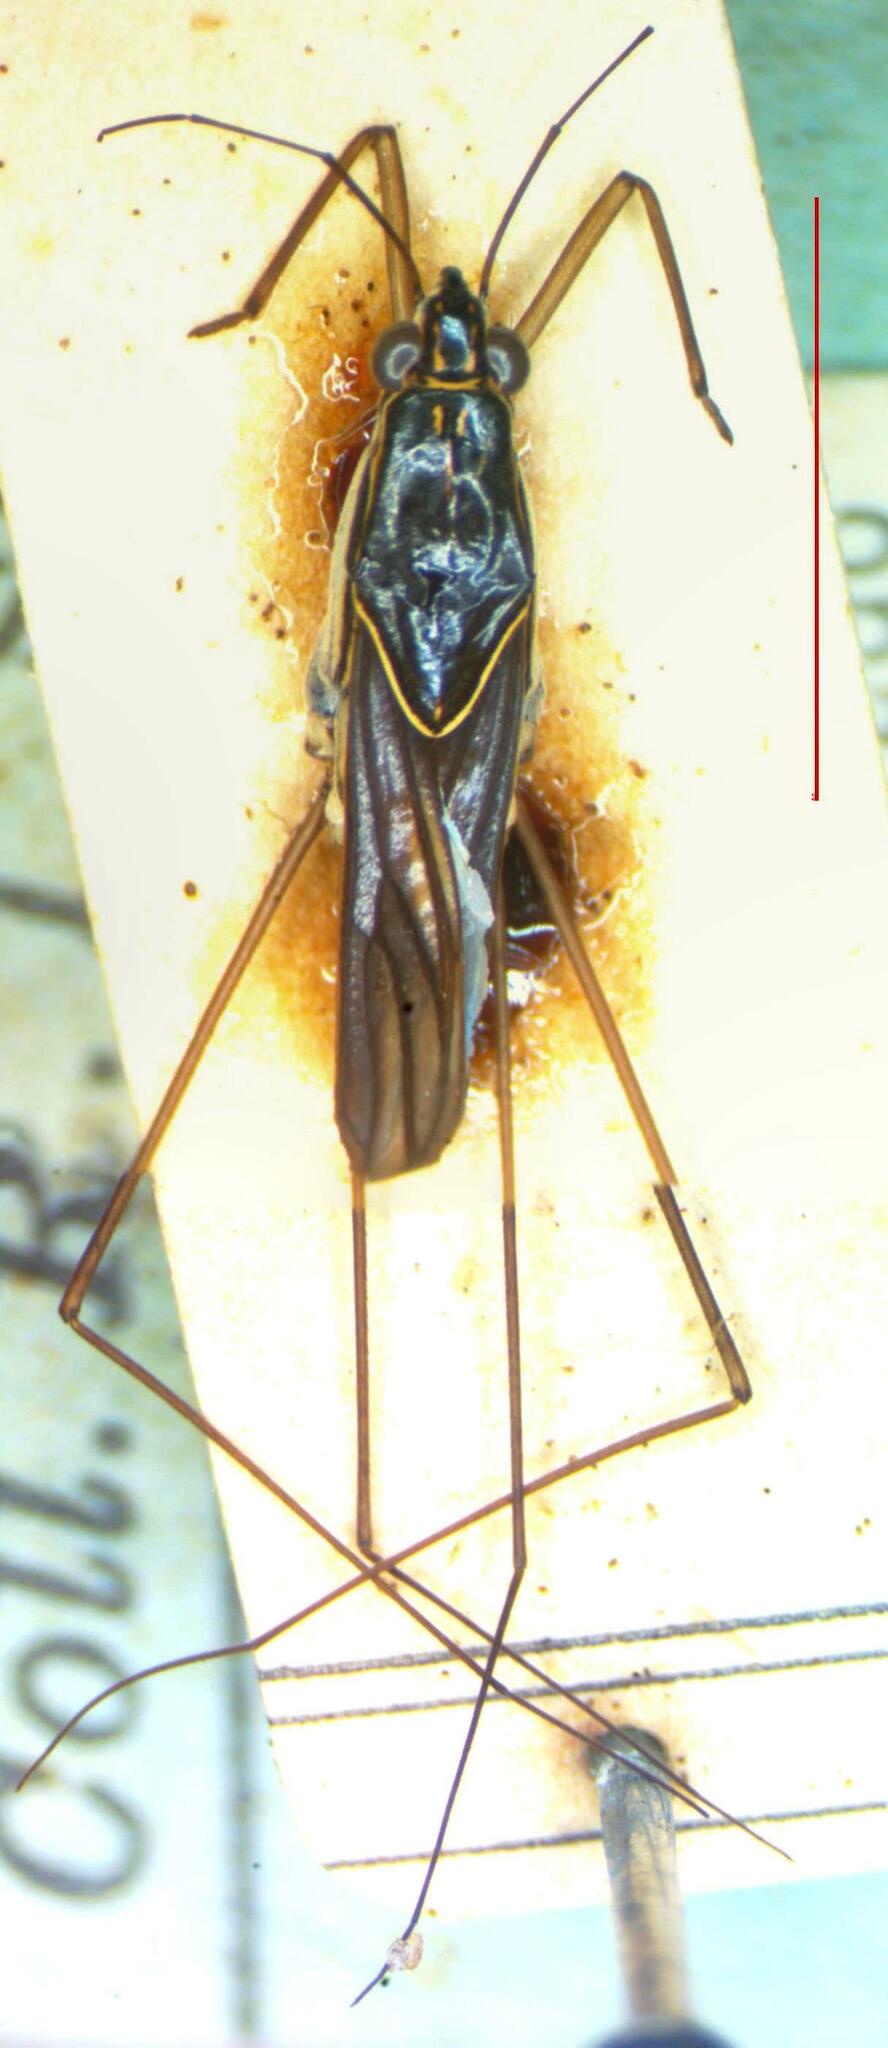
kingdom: Animalia
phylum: Arthropoda
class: Insecta
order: Hemiptera
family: Gerridae
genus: Limnogonus
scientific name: Limnogonus cereiventris
